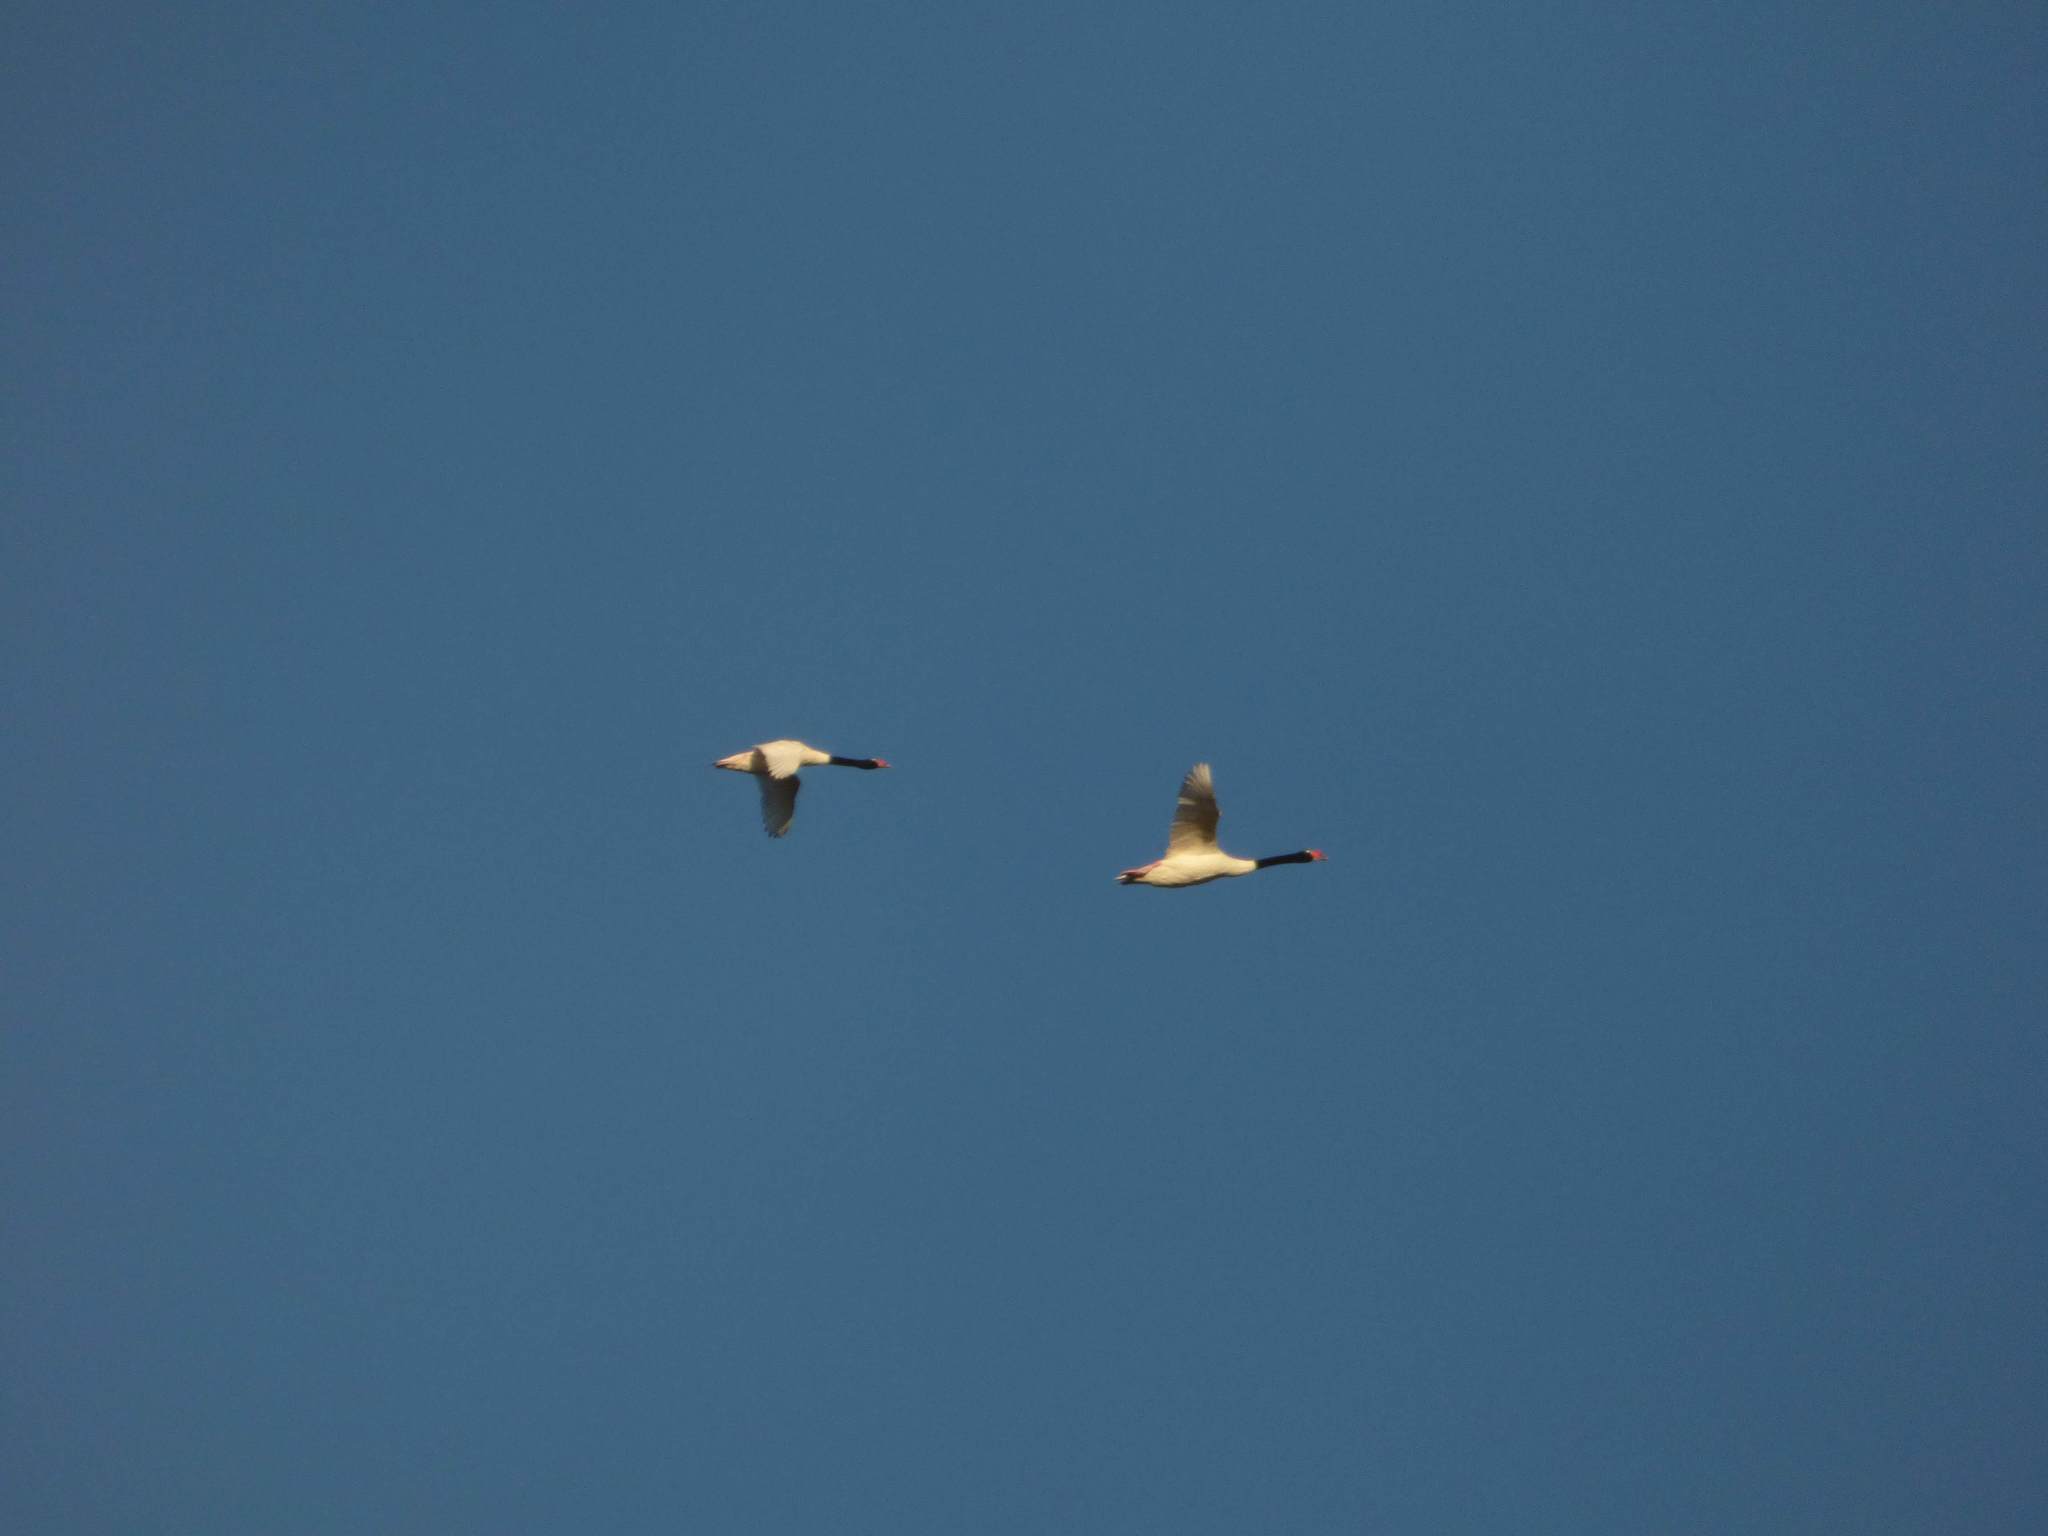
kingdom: Animalia
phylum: Chordata
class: Aves
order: Anseriformes
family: Anatidae
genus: Cygnus
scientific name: Cygnus melancoryphus
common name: Black-necked swan
